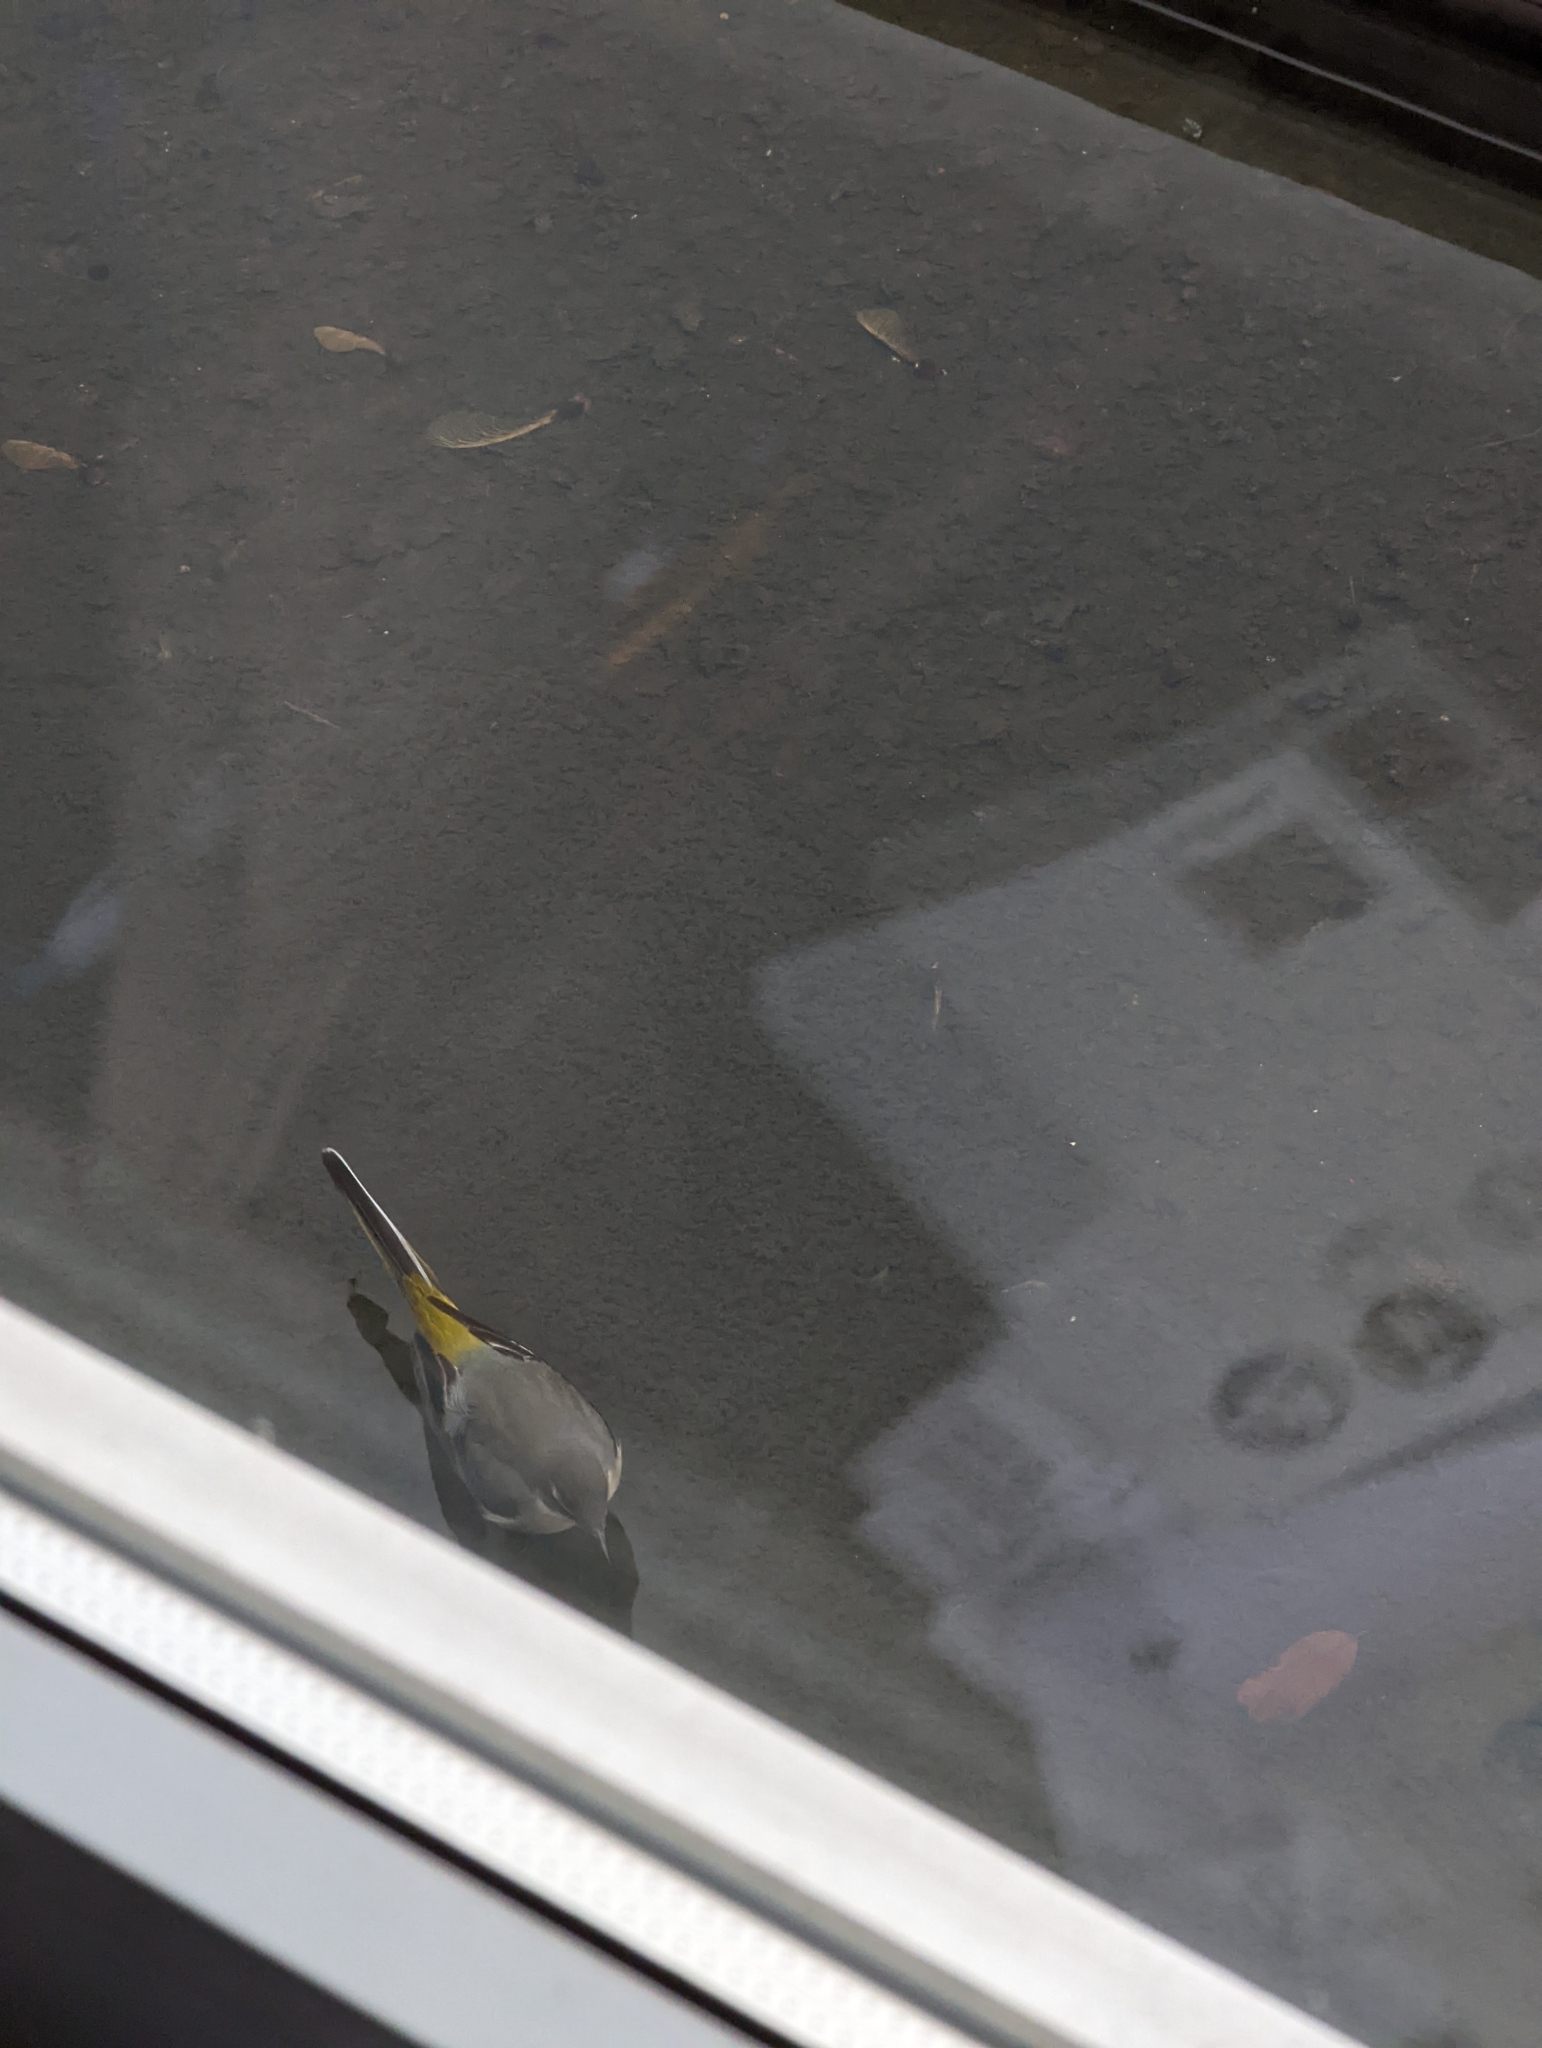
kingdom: Animalia
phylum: Chordata
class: Aves
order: Passeriformes
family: Motacillidae
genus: Motacilla
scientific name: Motacilla cinerea
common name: Grey wagtail
